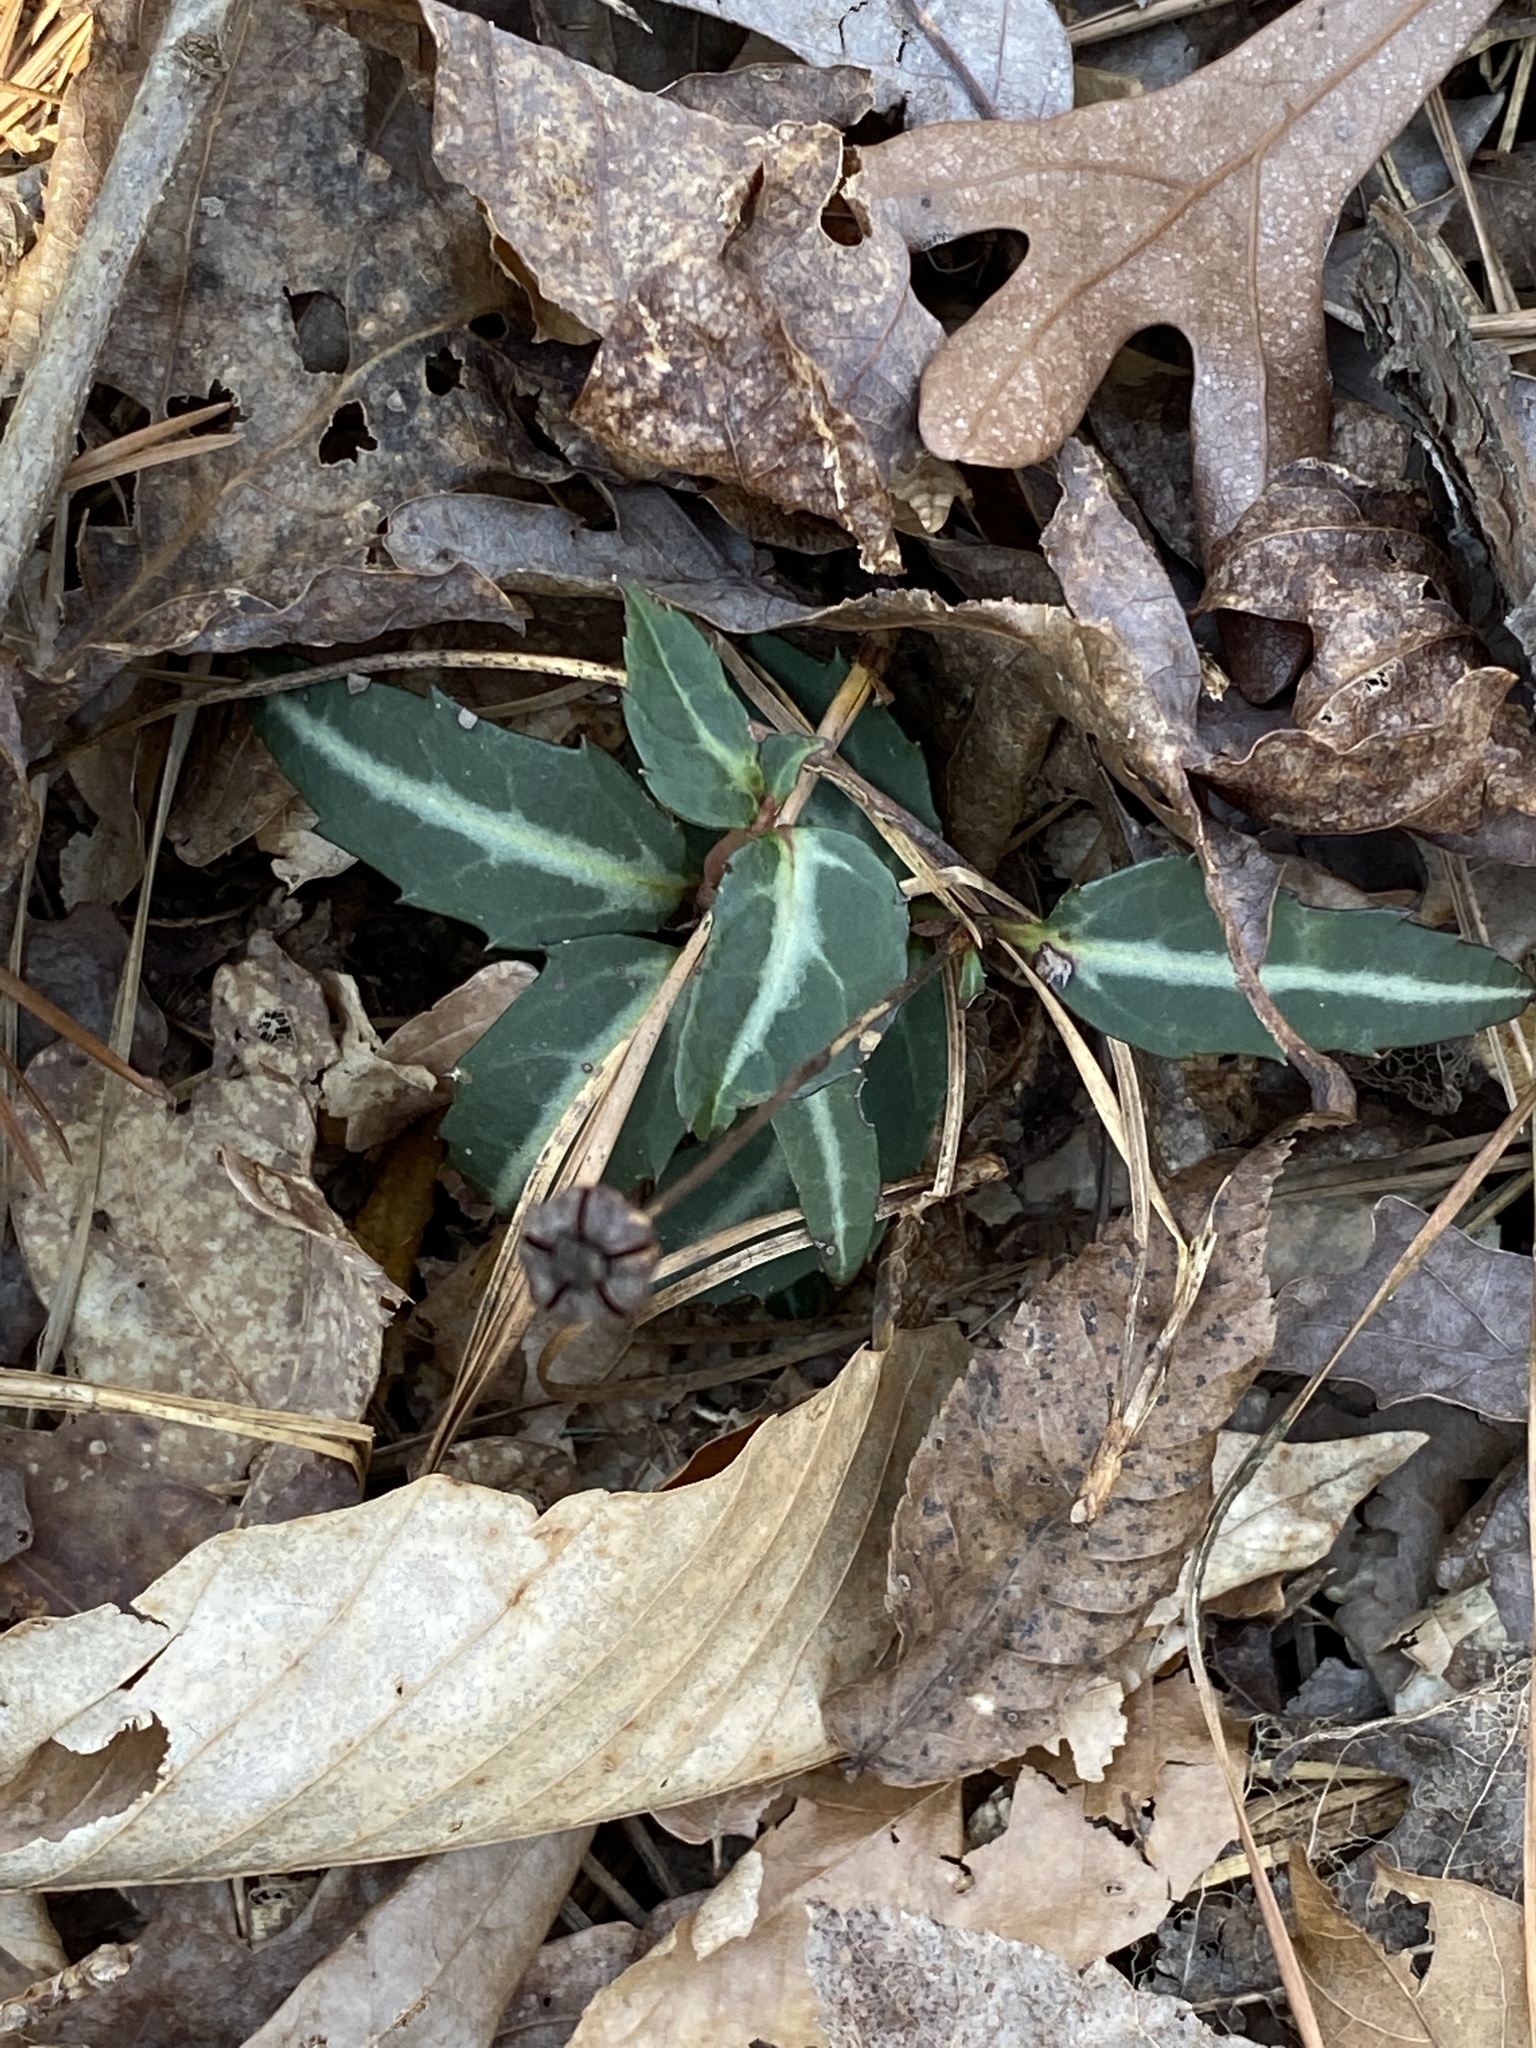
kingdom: Plantae
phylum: Tracheophyta
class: Magnoliopsida
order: Ericales
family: Ericaceae
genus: Chimaphila
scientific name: Chimaphila maculata
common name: Spotted pipsissewa
